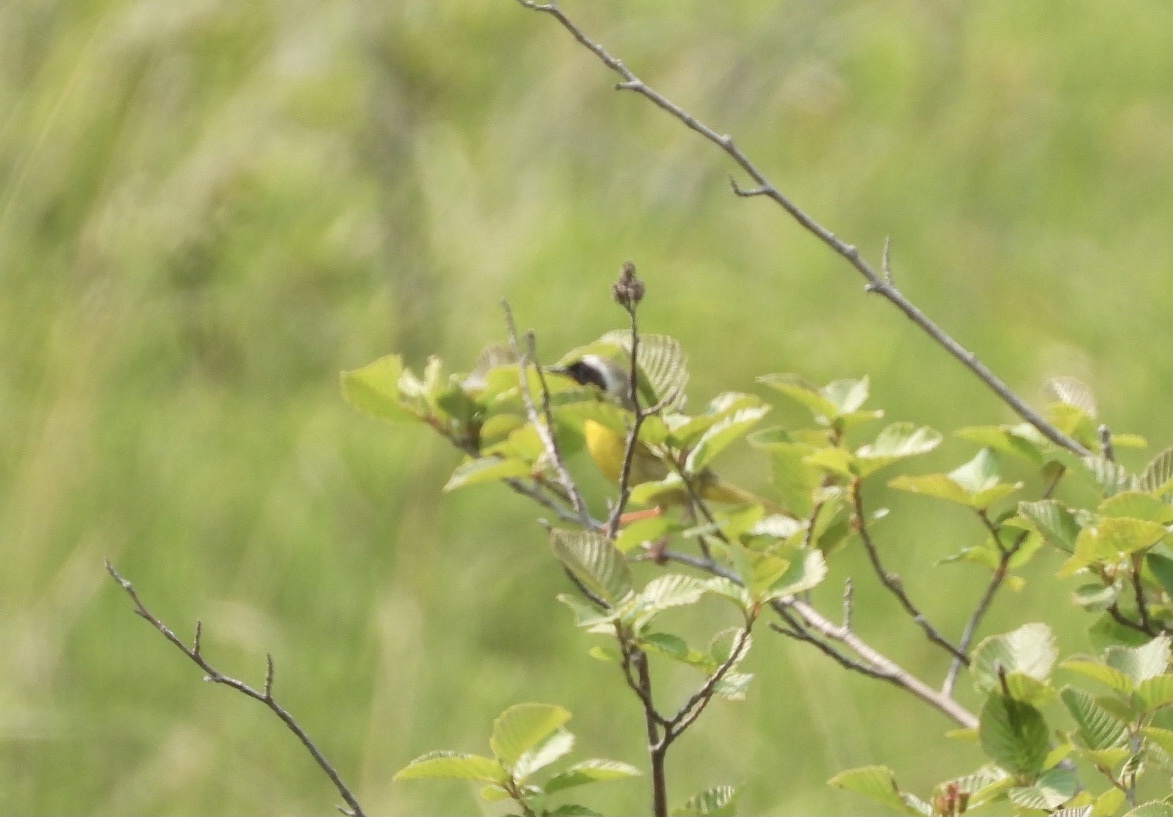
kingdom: Animalia
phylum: Chordata
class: Aves
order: Passeriformes
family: Parulidae
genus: Geothlypis
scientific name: Geothlypis trichas
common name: Common yellowthroat
